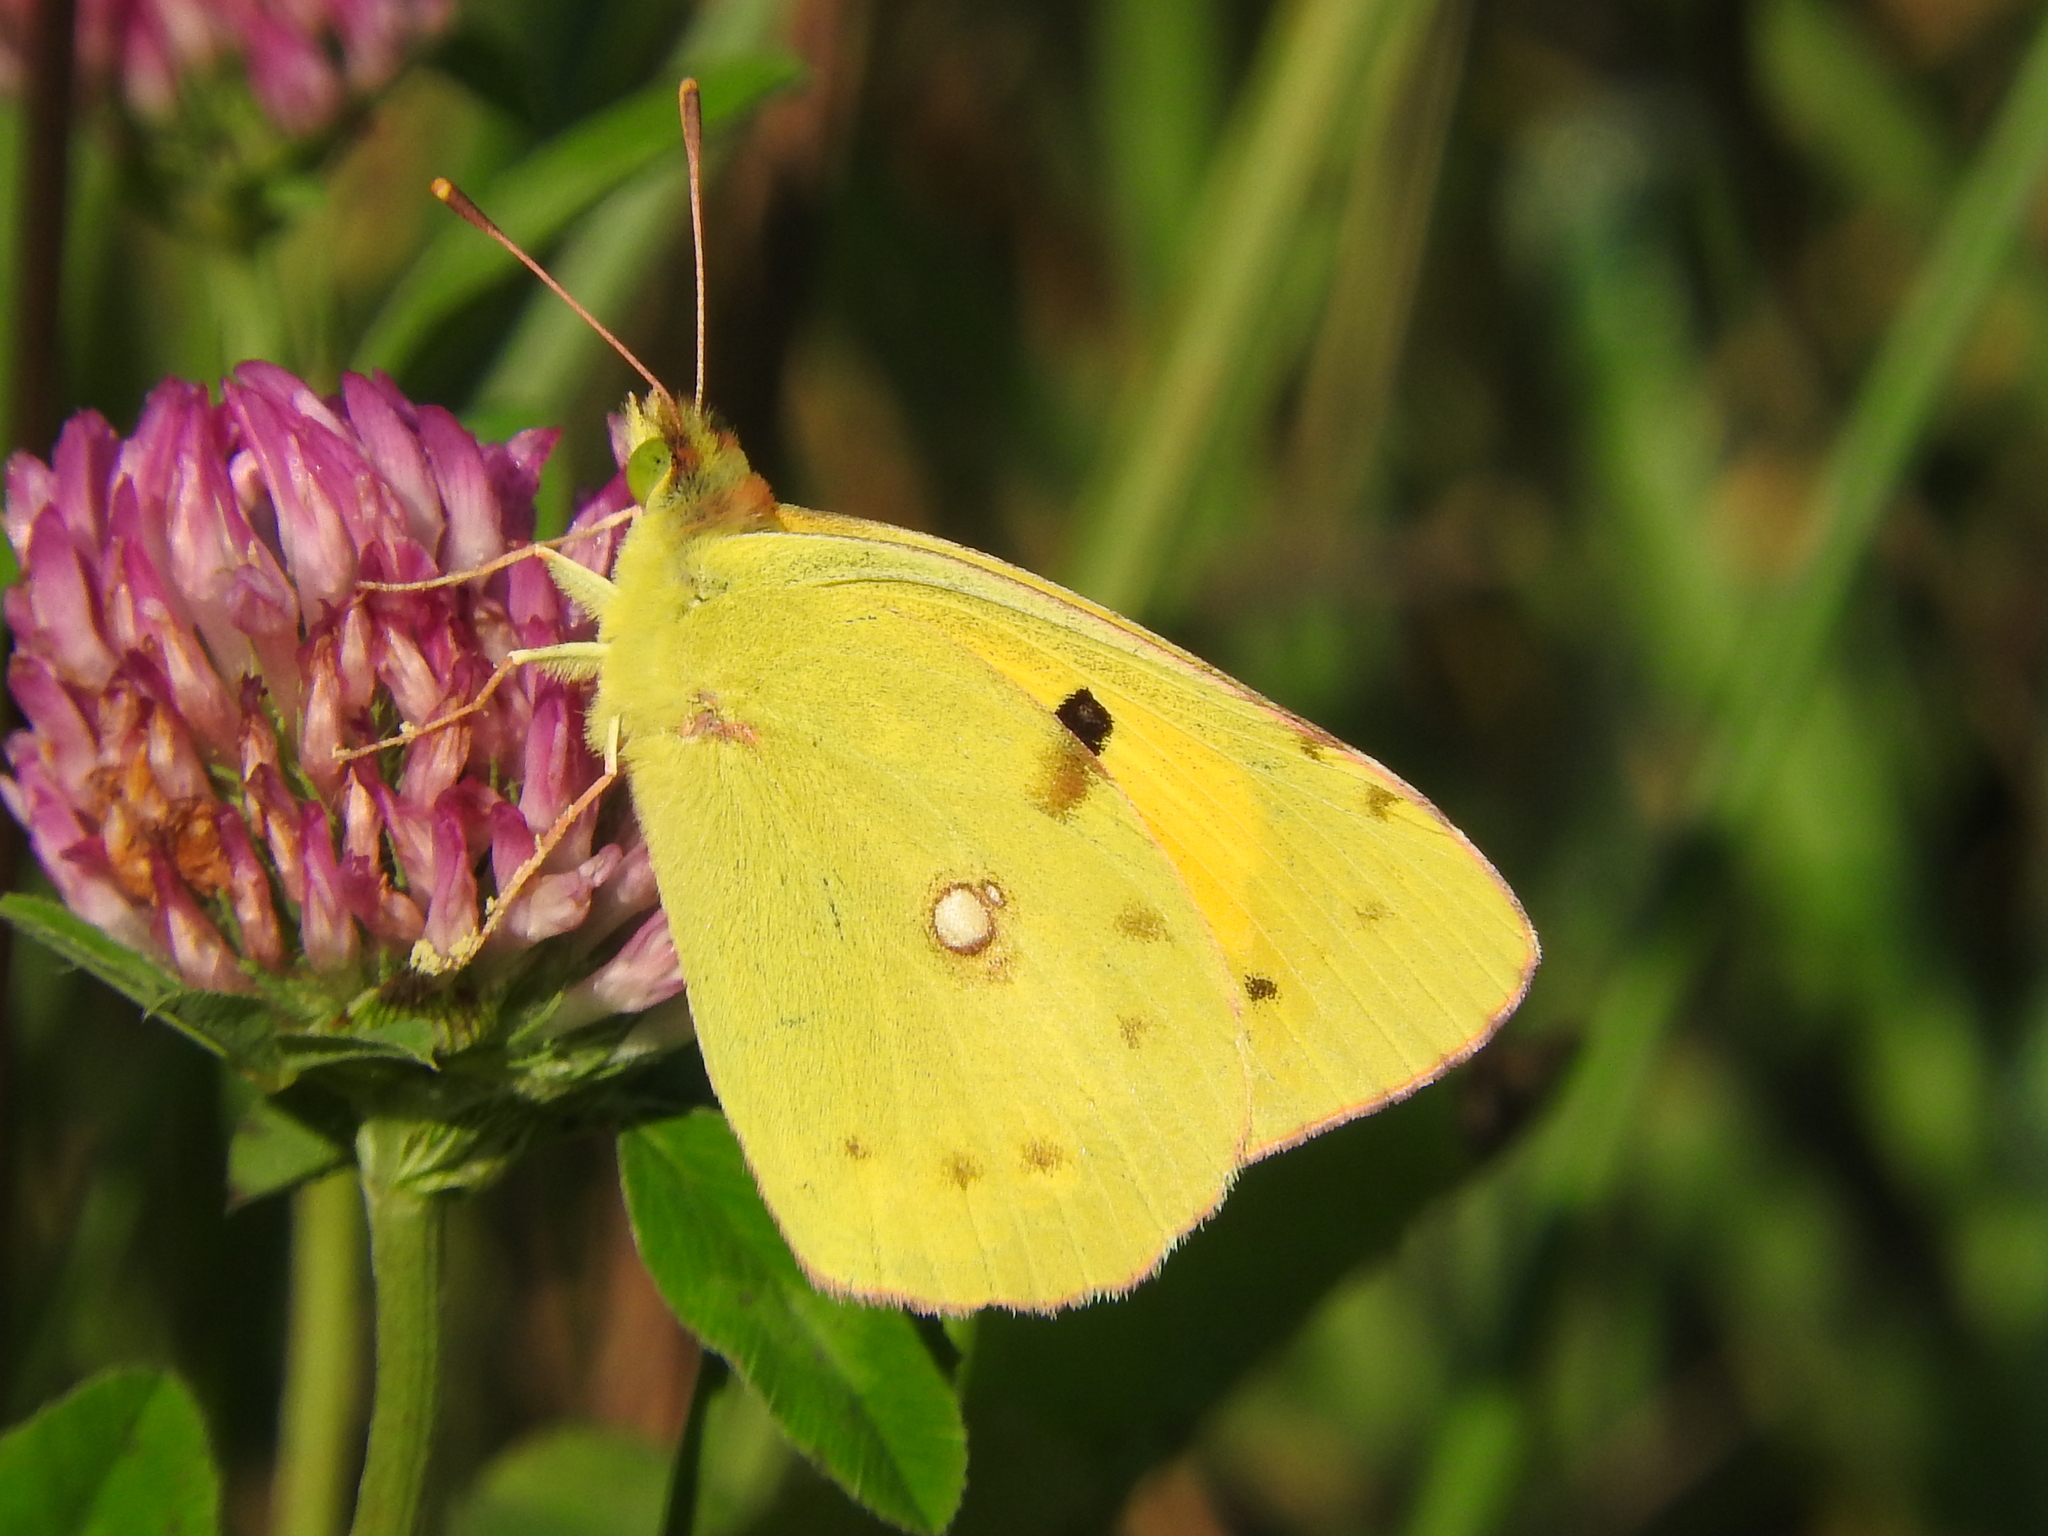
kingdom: Animalia
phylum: Arthropoda
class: Insecta
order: Lepidoptera
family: Pieridae
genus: Colias
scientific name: Colias croceus
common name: Clouded yellow
